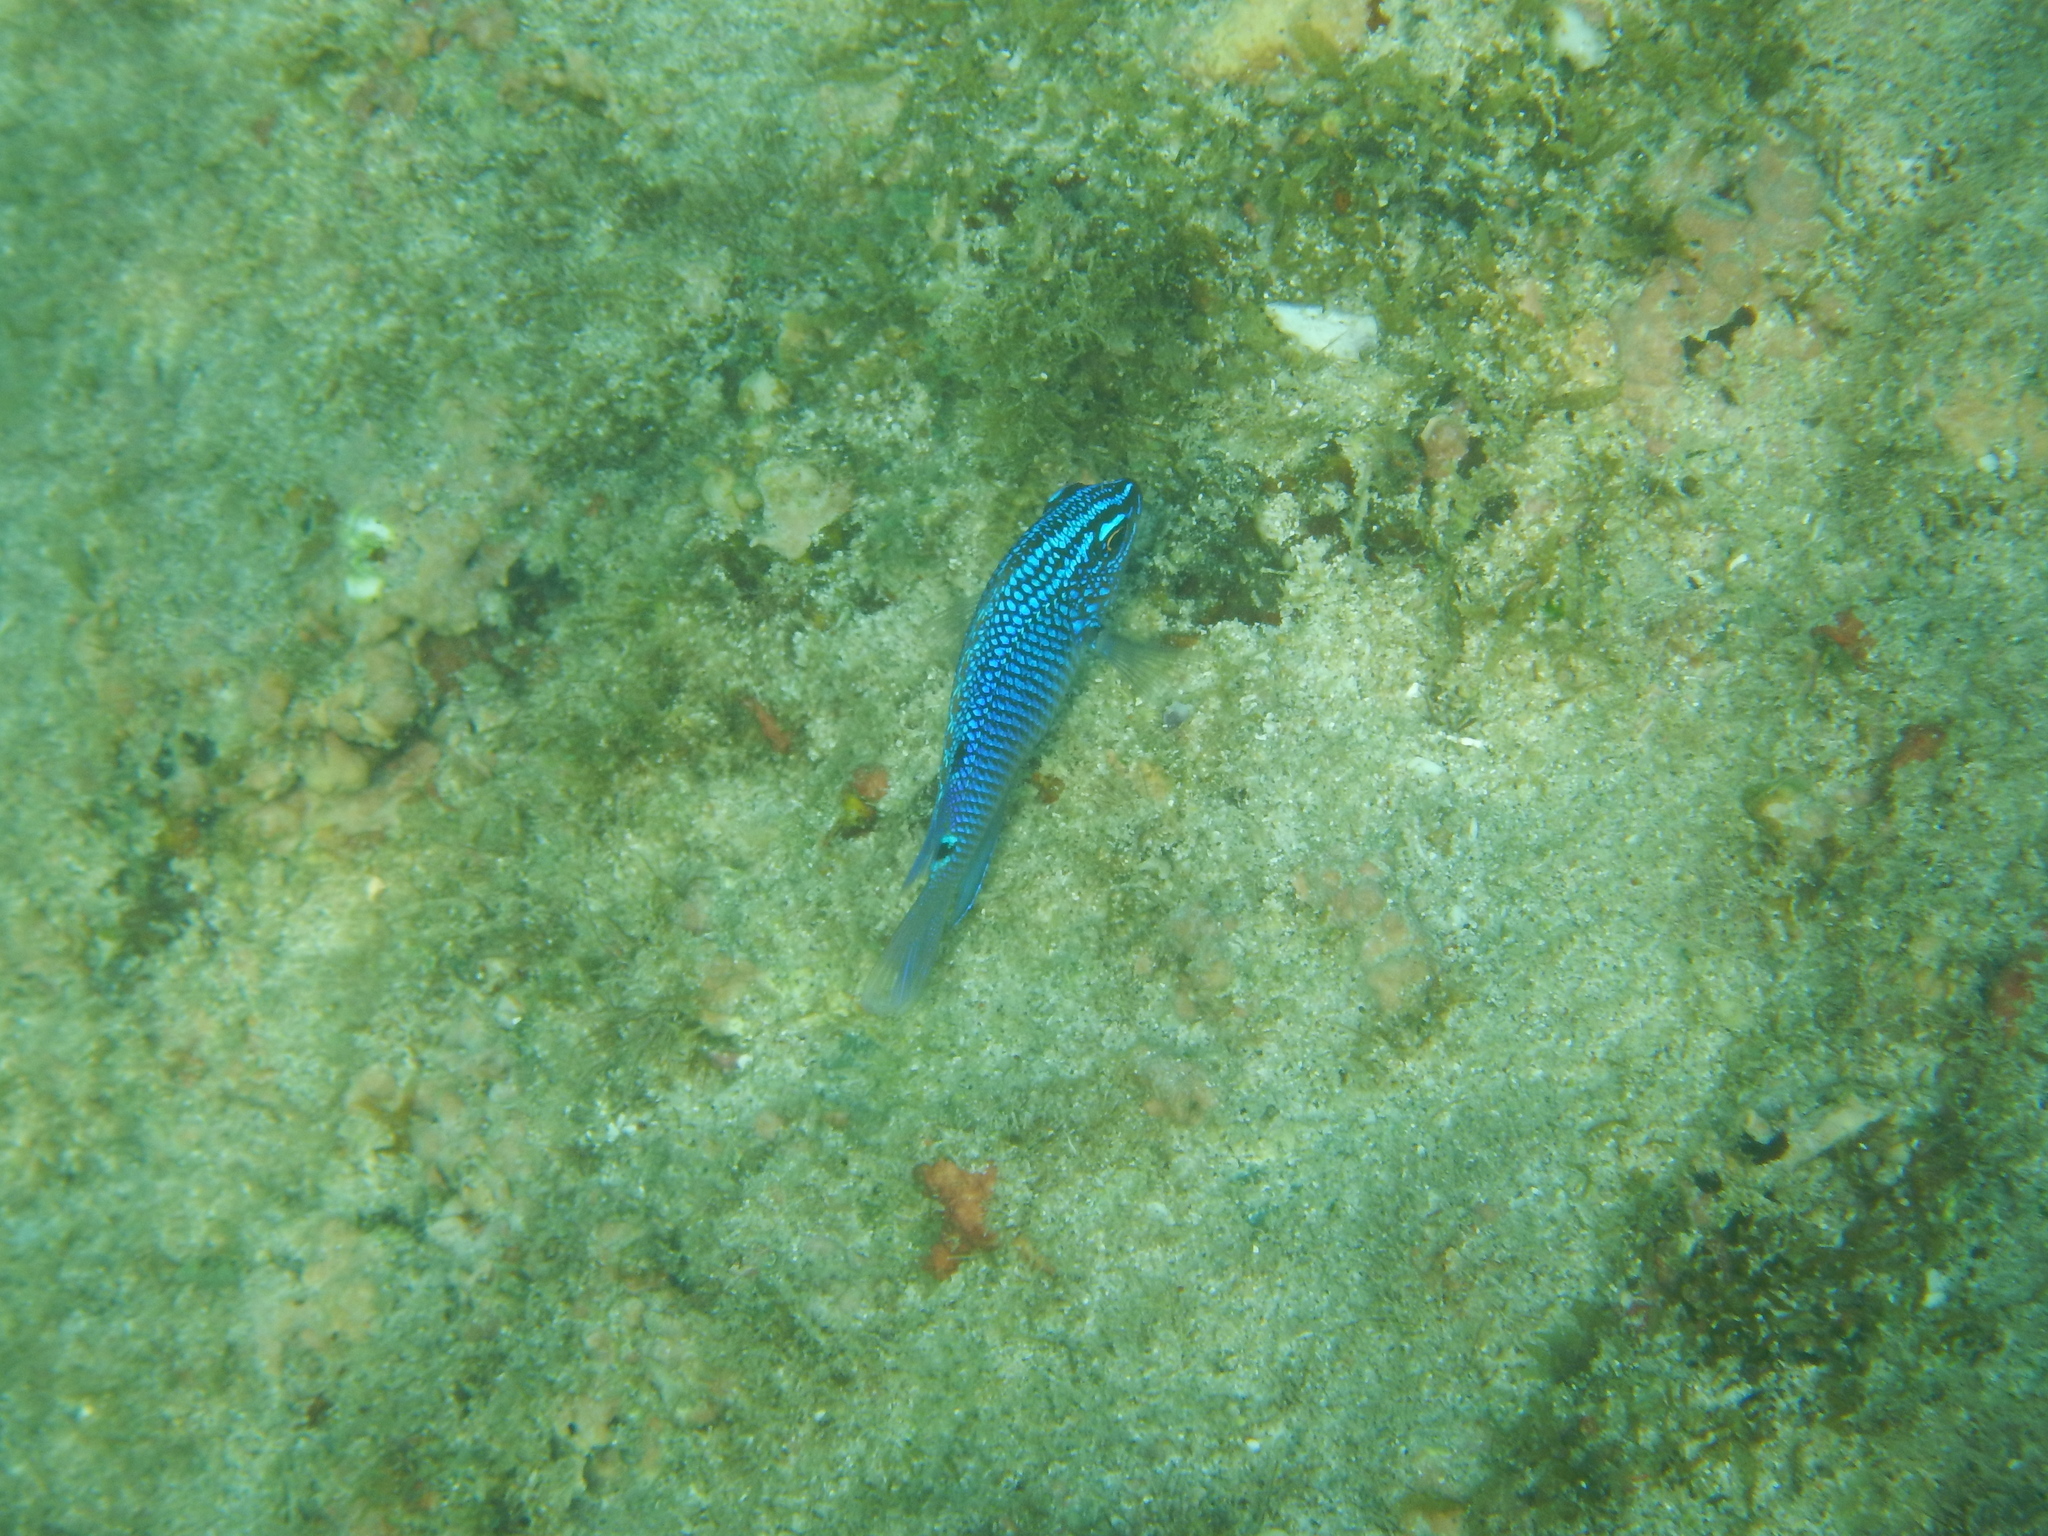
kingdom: Animalia
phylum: Chordata
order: Perciformes
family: Pomacentridae
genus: Stegastes
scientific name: Stegastes acapulcoensis
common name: Acapulco damselfish
